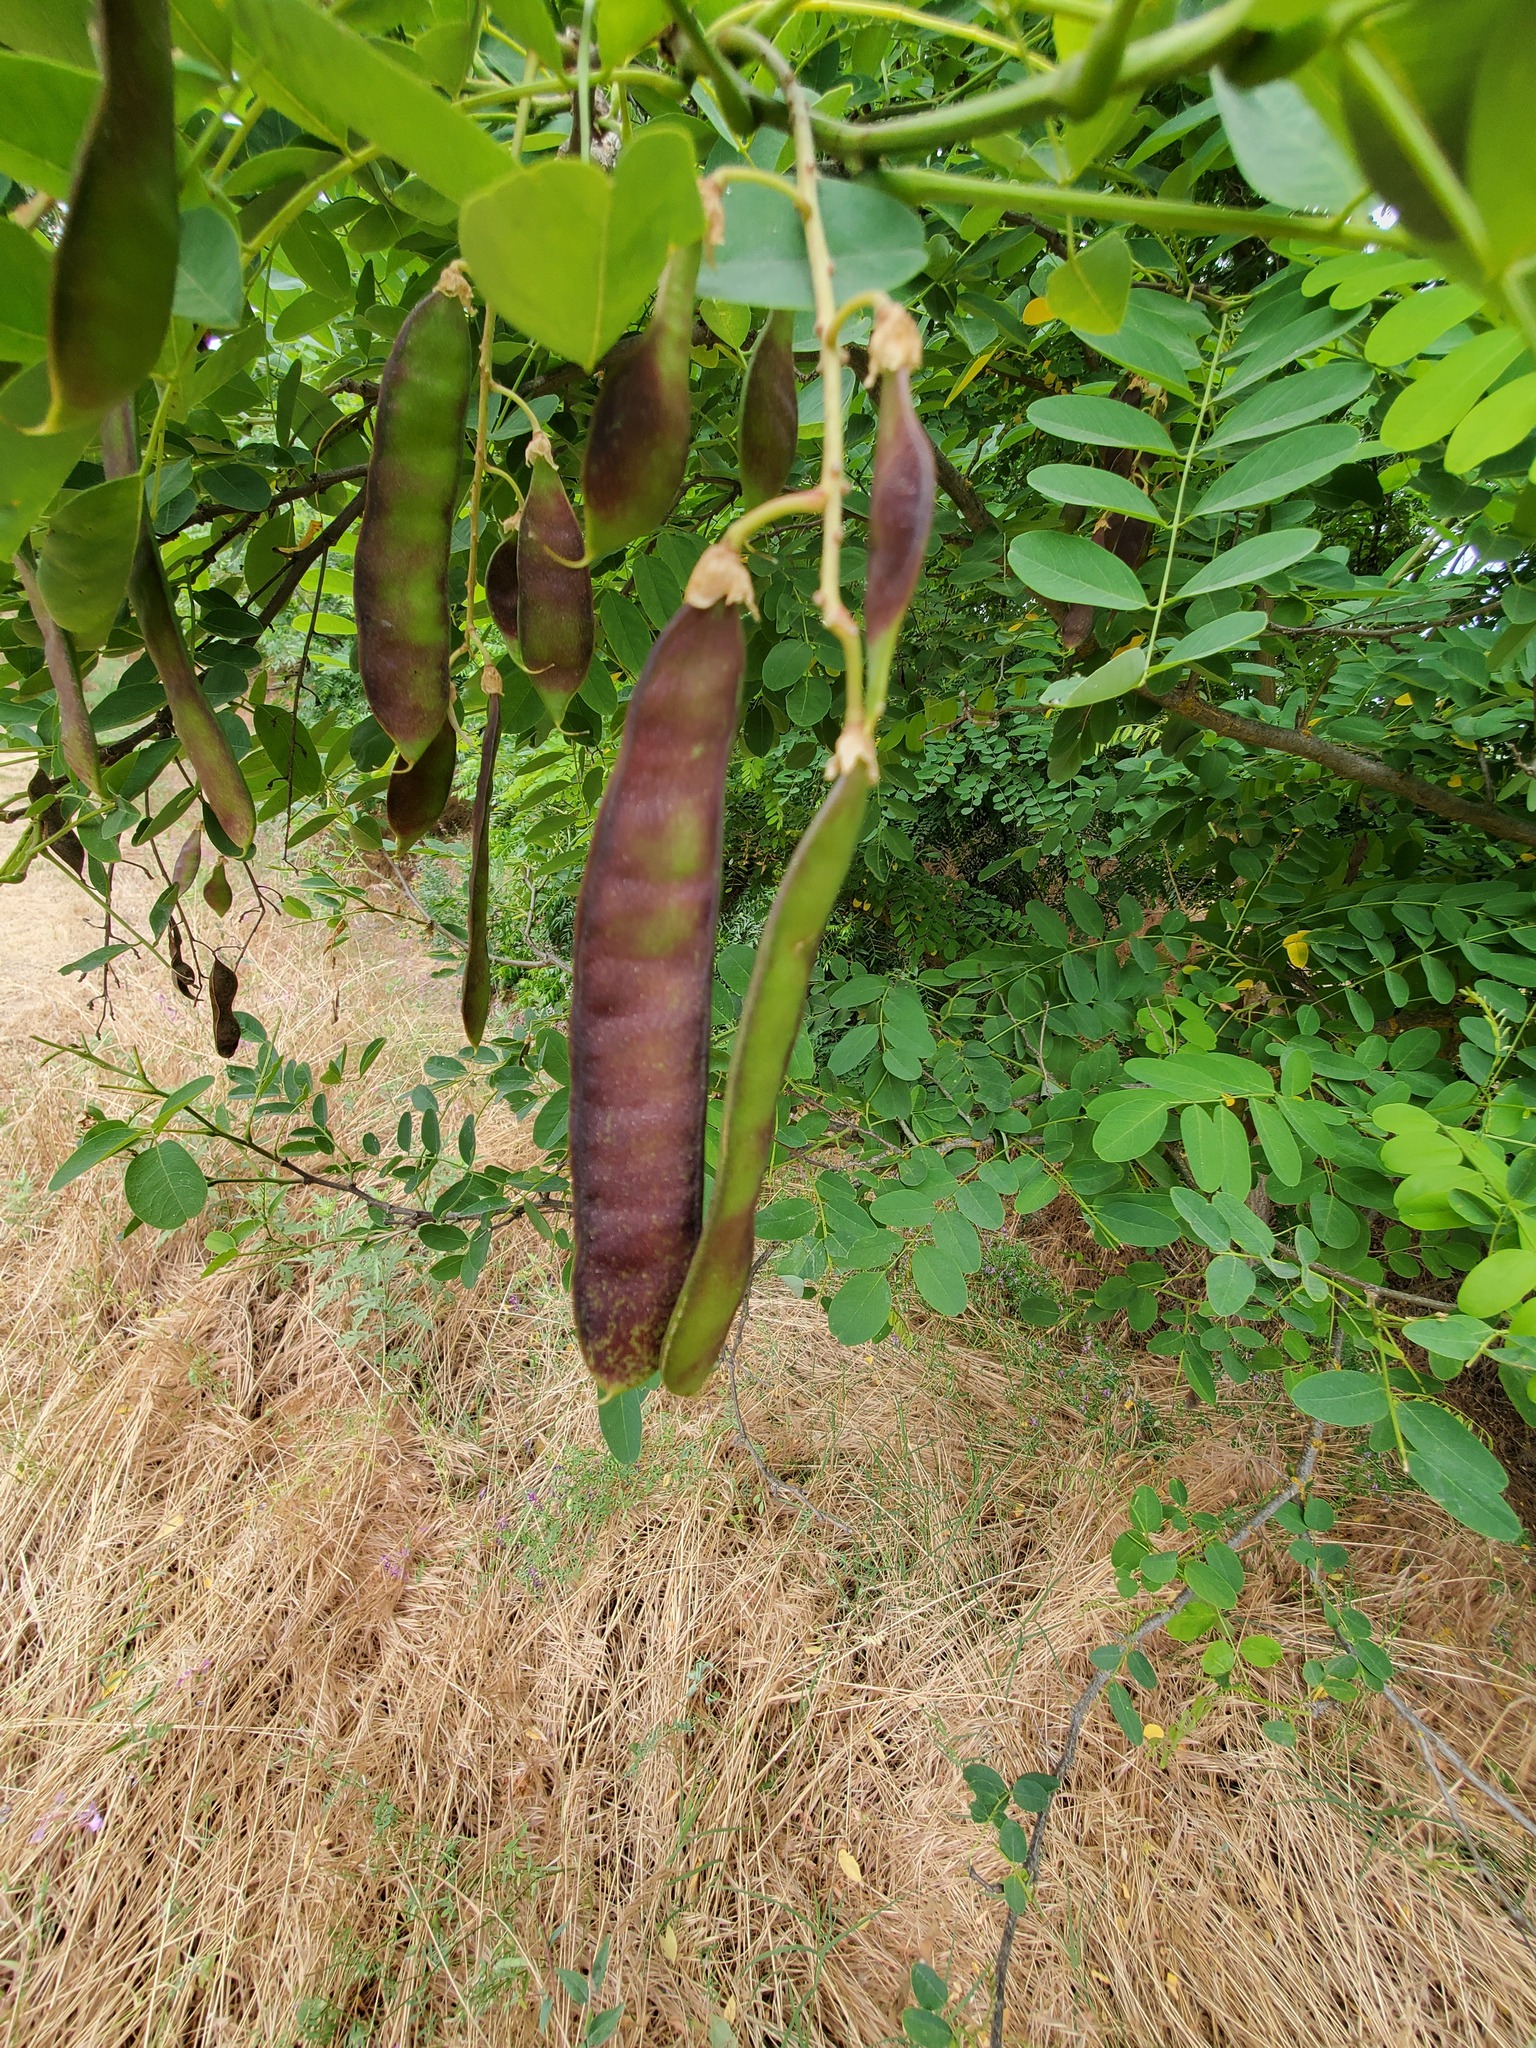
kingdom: Plantae
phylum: Tracheophyta
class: Magnoliopsida
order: Fabales
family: Fabaceae
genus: Robinia
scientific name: Robinia pseudoacacia
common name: Black locust
